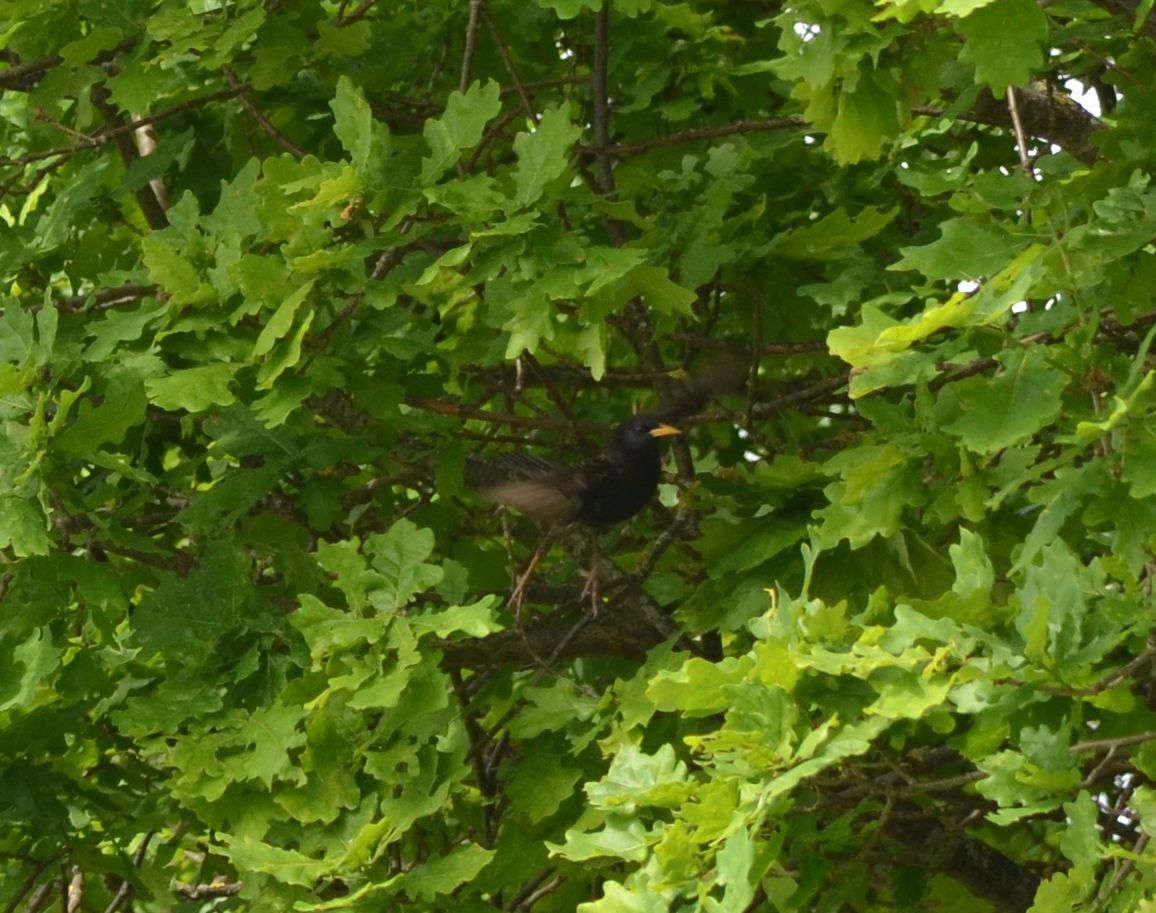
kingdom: Animalia
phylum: Chordata
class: Aves
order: Passeriformes
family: Turdidae
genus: Turdus
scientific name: Turdus merula
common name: Common blackbird
